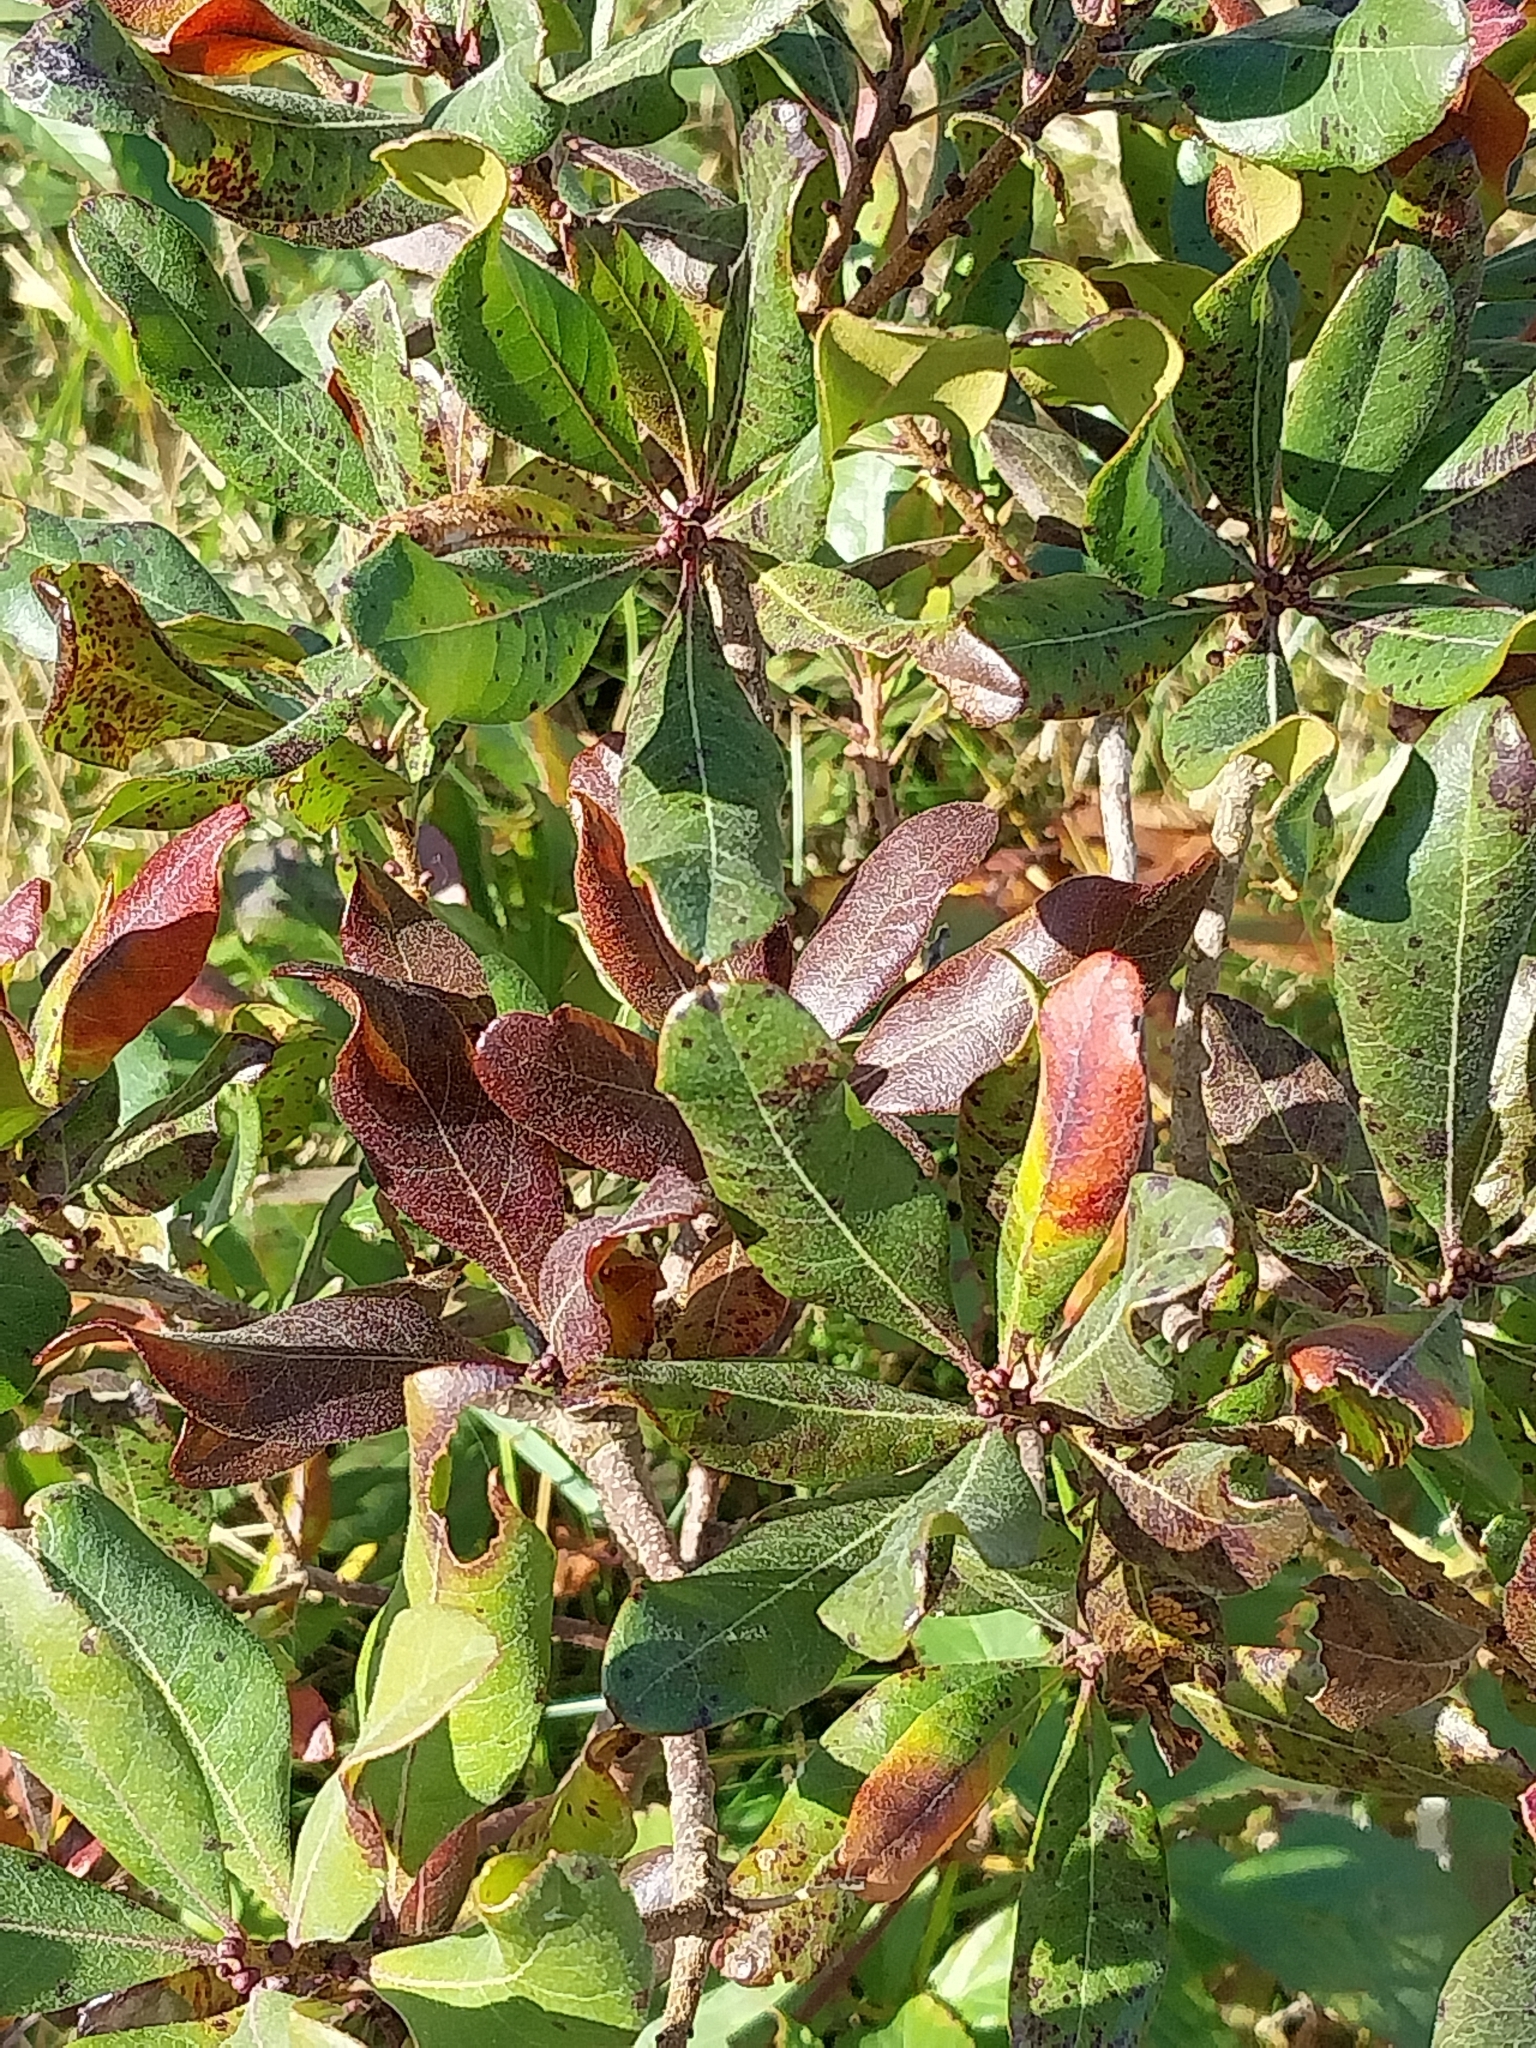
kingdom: Plantae
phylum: Tracheophyta
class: Magnoliopsida
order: Fagales
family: Myricaceae
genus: Morella
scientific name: Morella pensylvanica
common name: Northern bayberry
